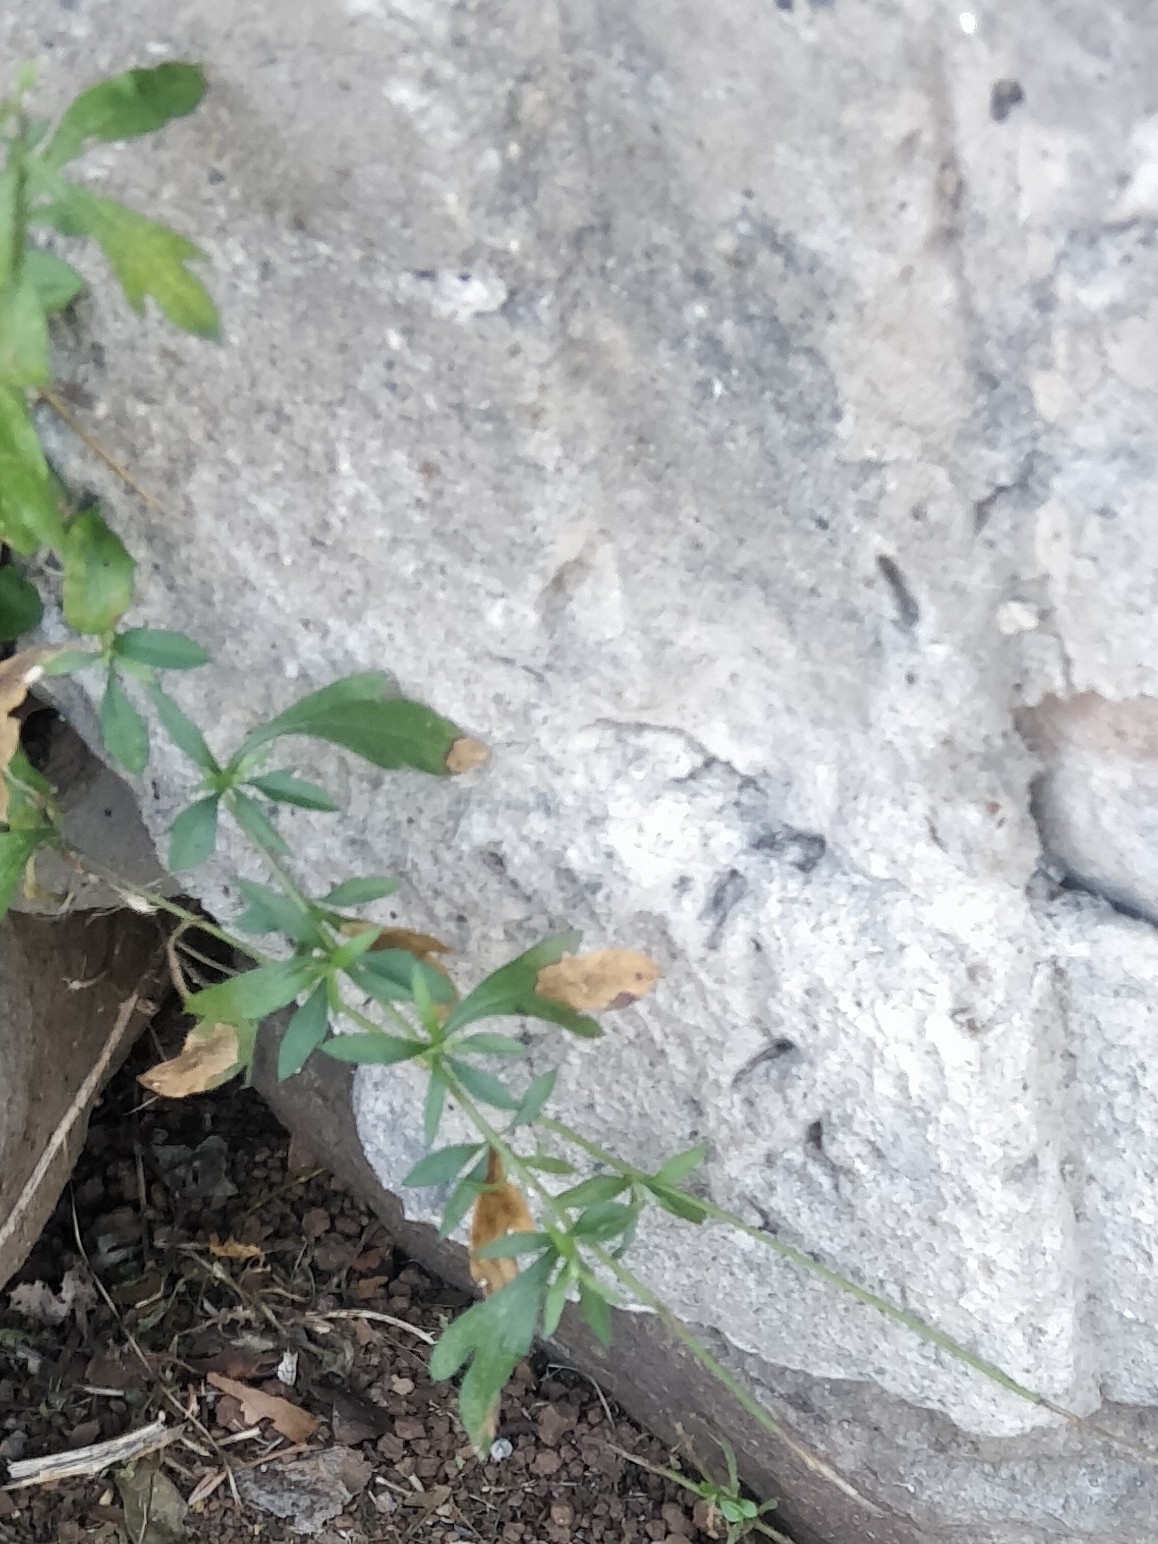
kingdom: Plantae
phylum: Tracheophyta
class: Magnoliopsida
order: Asterales
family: Asteraceae
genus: Erigeron
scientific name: Erigeron karvinskianus
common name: Mexican fleabane
